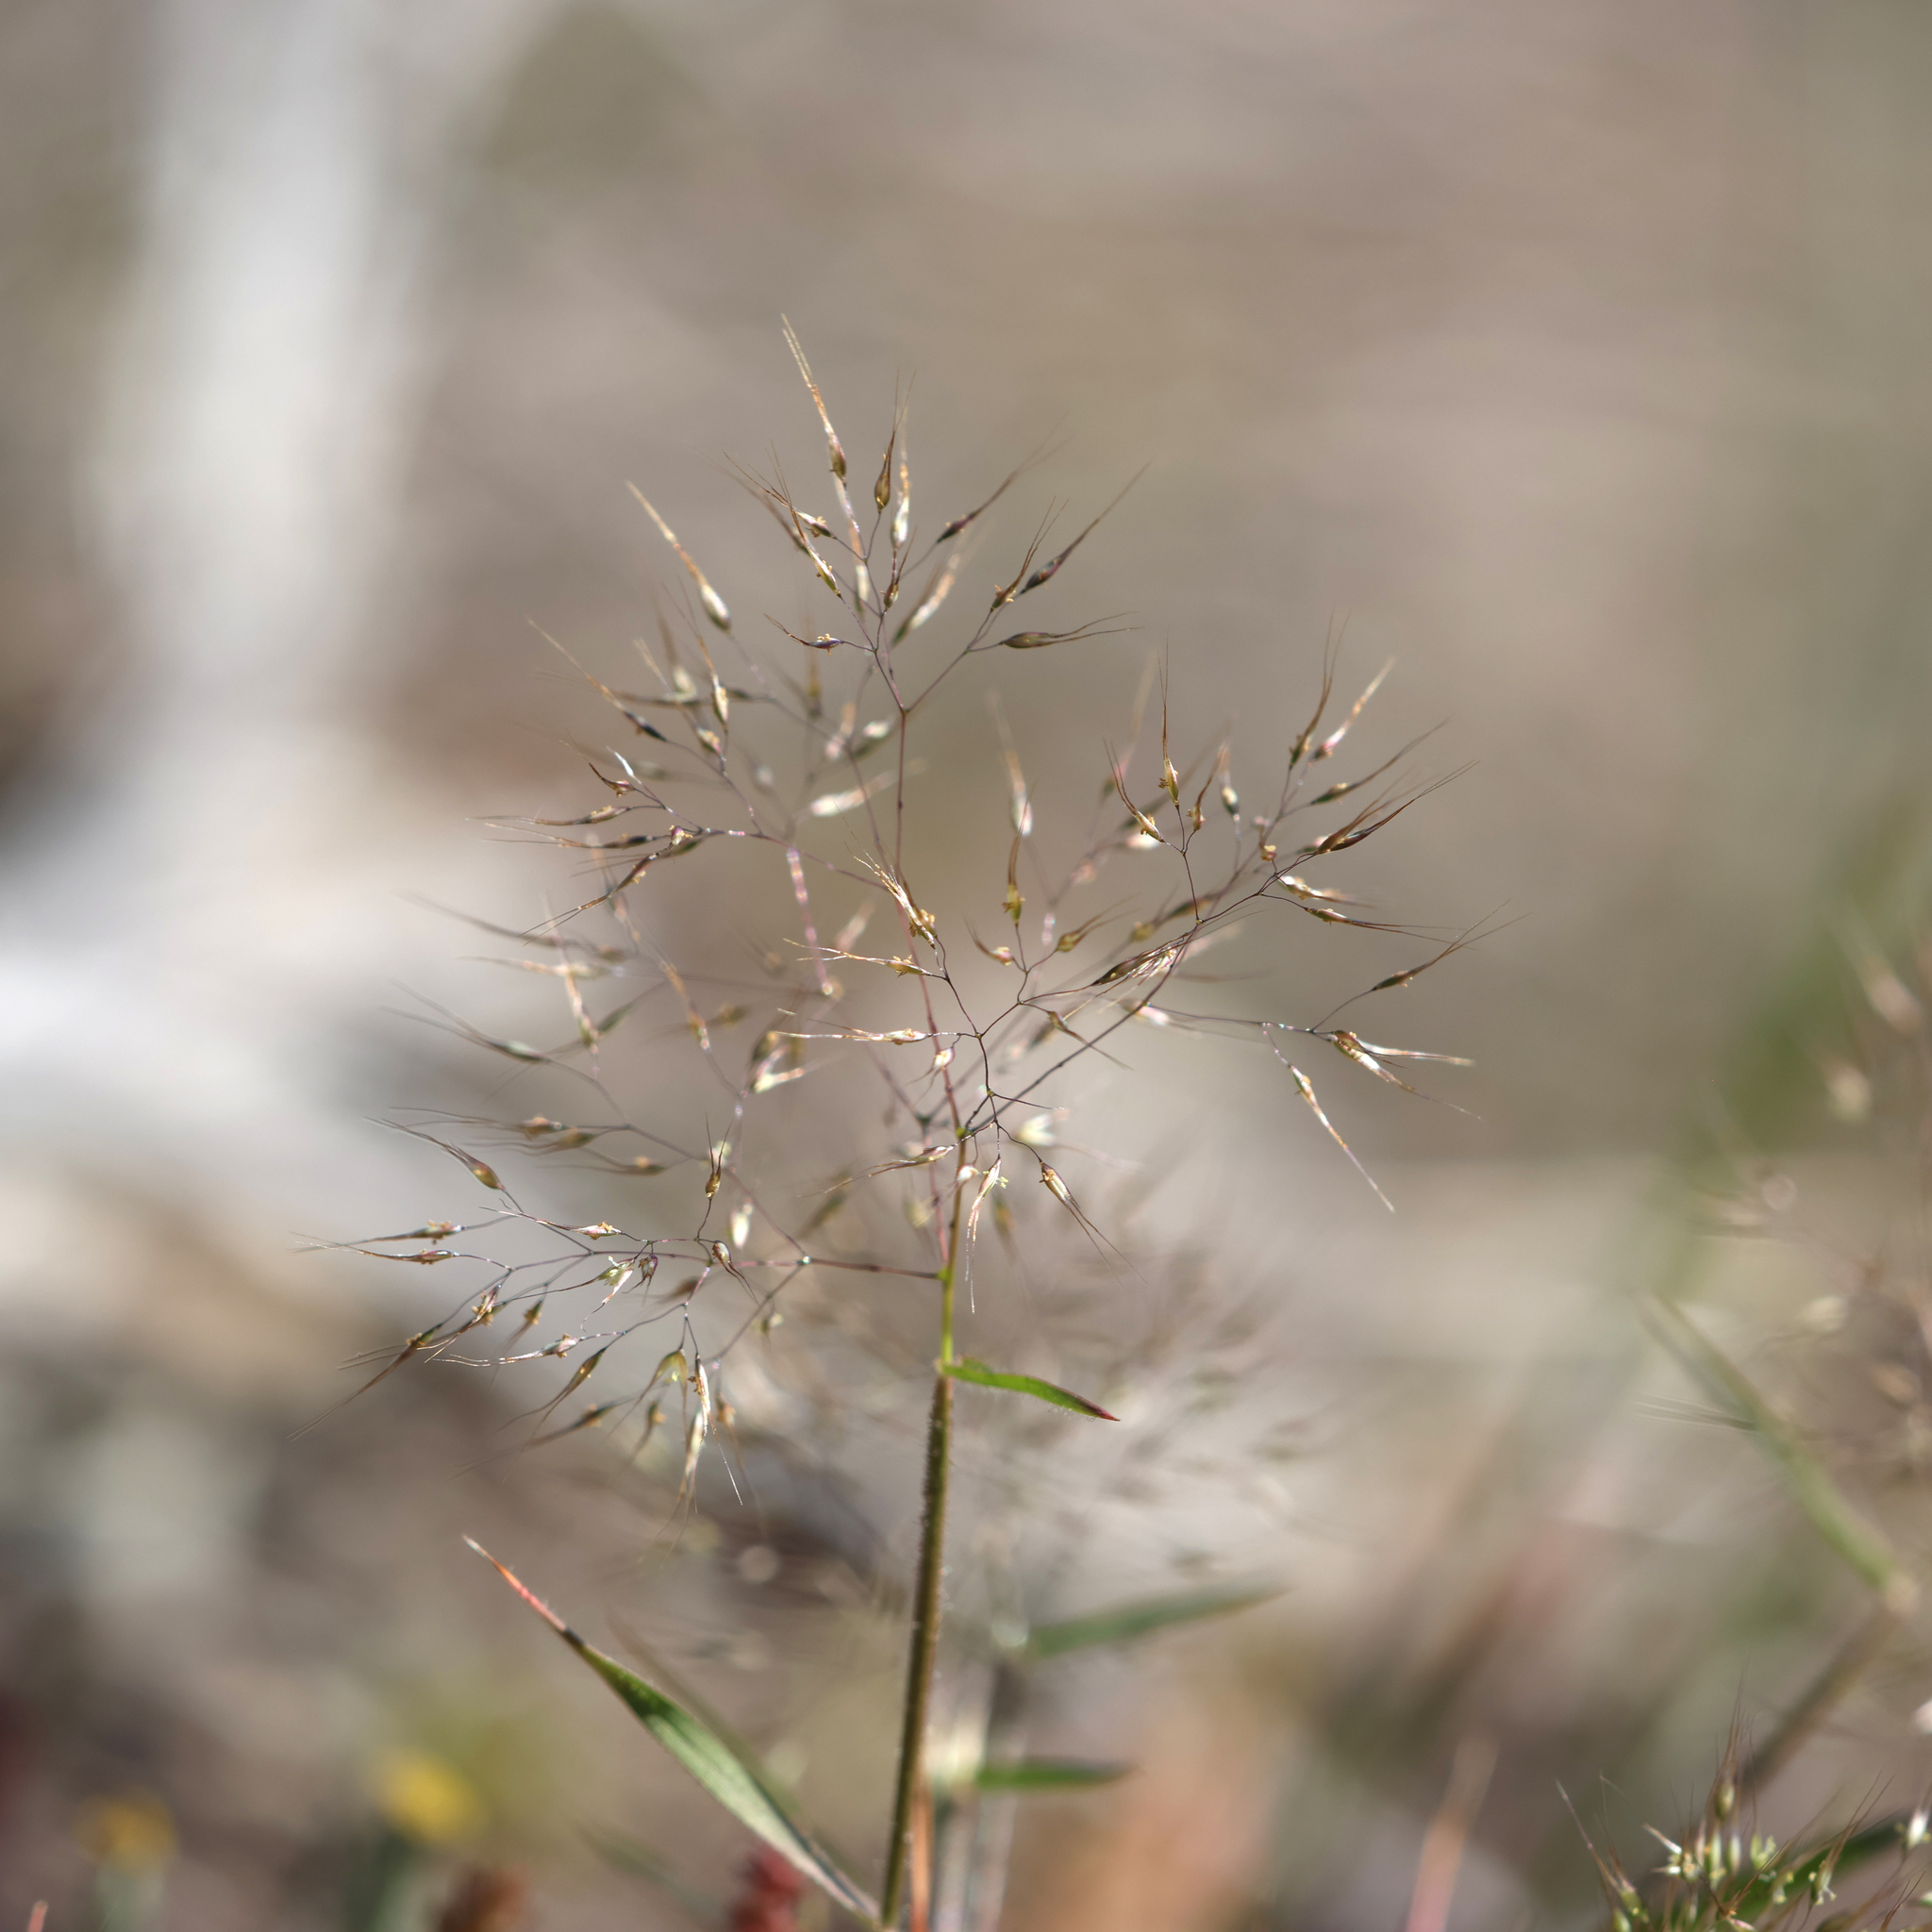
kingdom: Plantae
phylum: Tracheophyta
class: Liliopsida
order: Poales
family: Poaceae
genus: Pentameris
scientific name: Pentameris airoides
